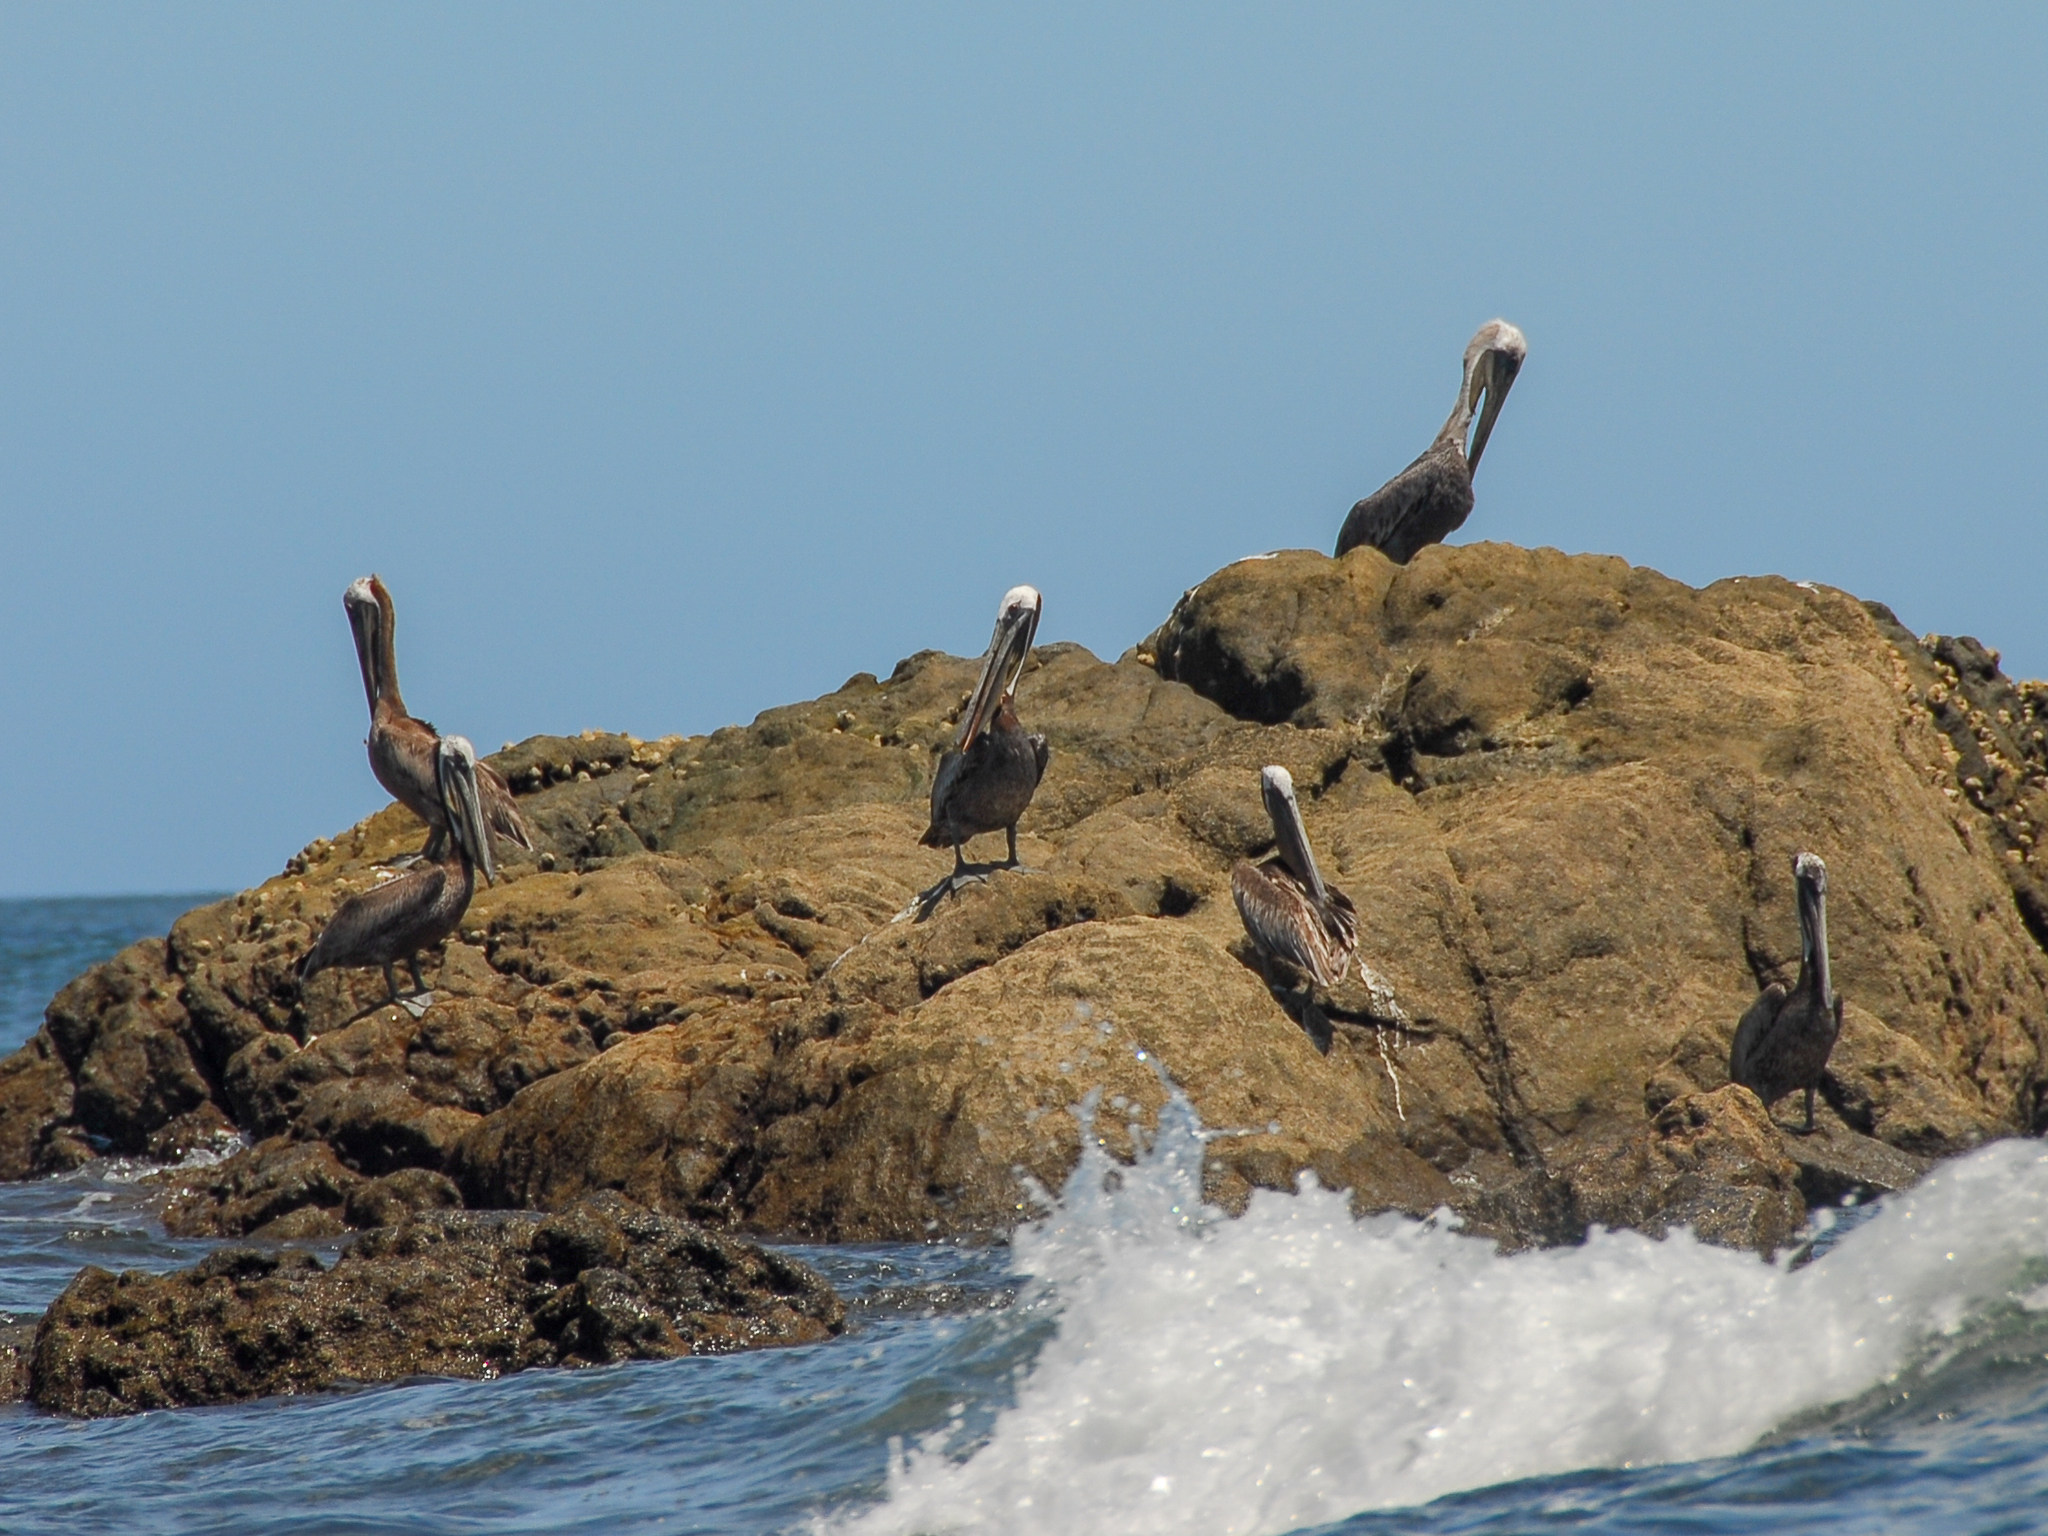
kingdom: Animalia
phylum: Chordata
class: Aves
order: Pelecaniformes
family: Pelecanidae
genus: Pelecanus
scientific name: Pelecanus occidentalis
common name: Brown pelican
